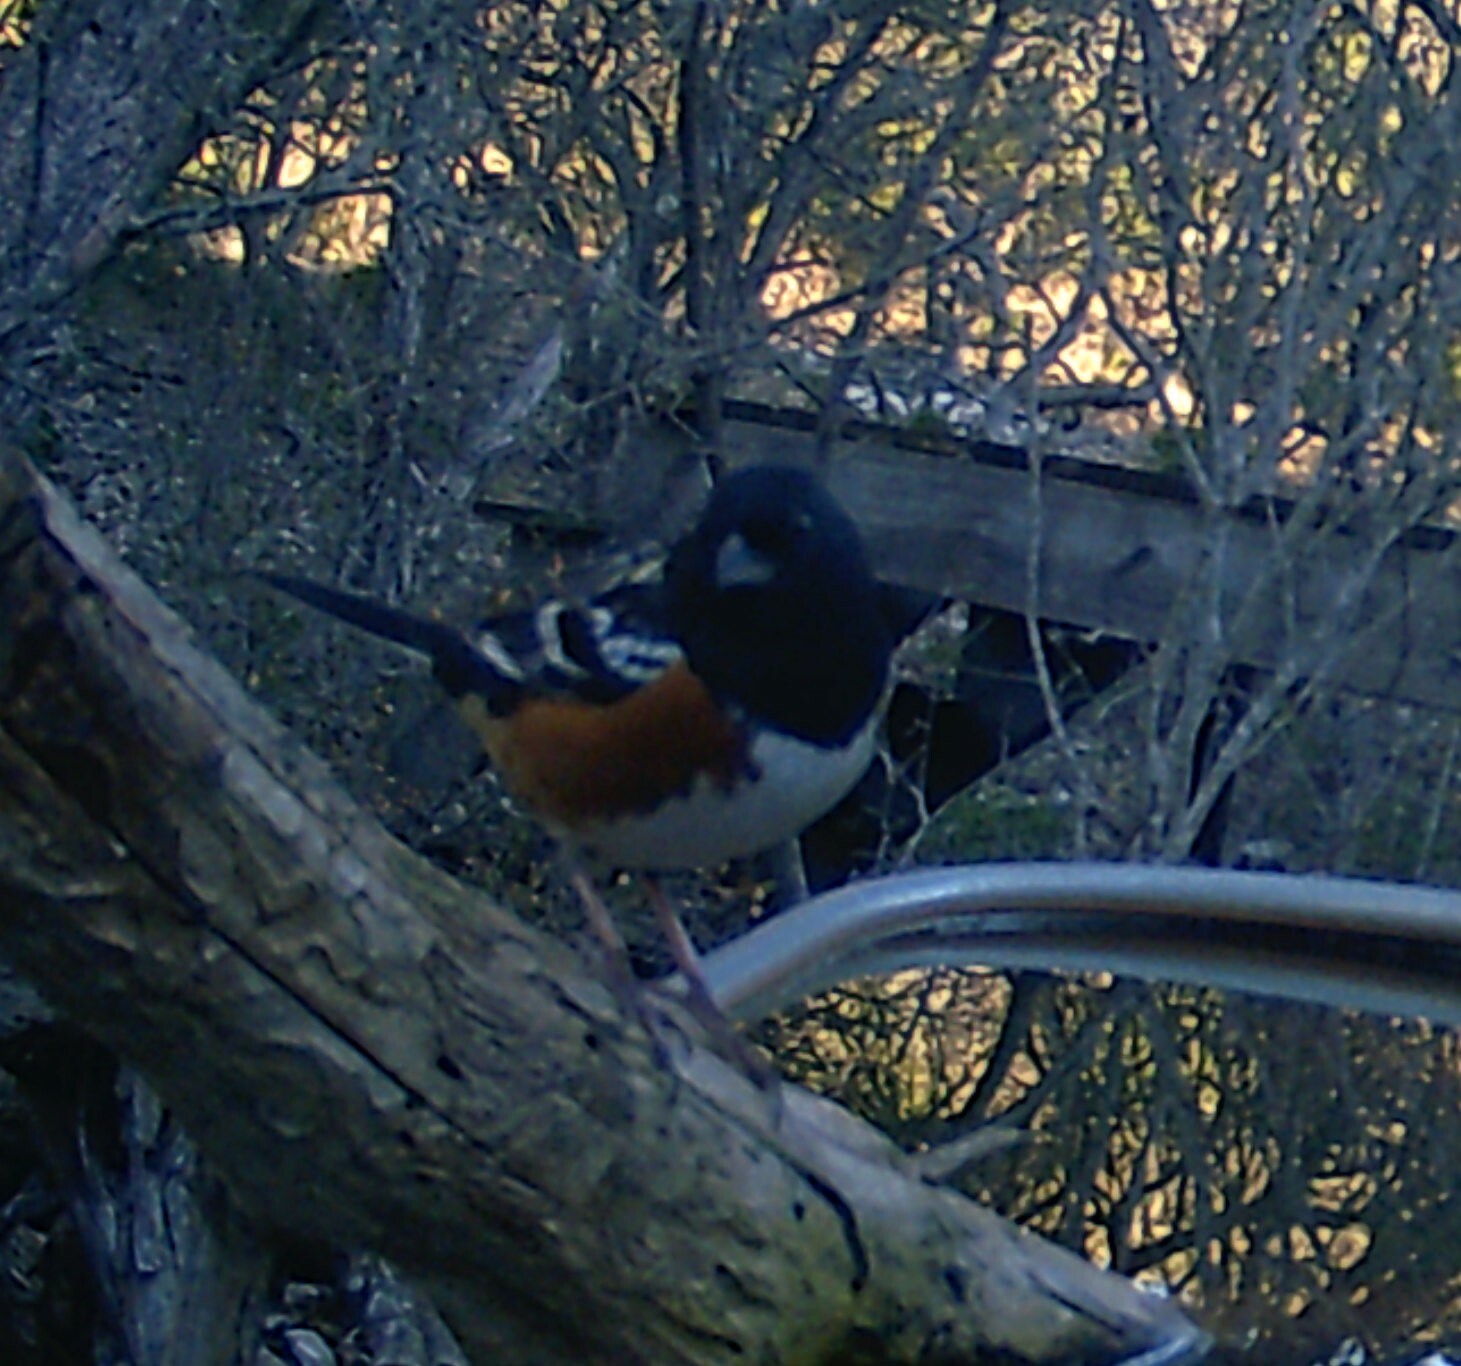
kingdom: Animalia
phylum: Chordata
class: Aves
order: Passeriformes
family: Passerellidae
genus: Pipilo
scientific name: Pipilo maculatus
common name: Spotted towhee
